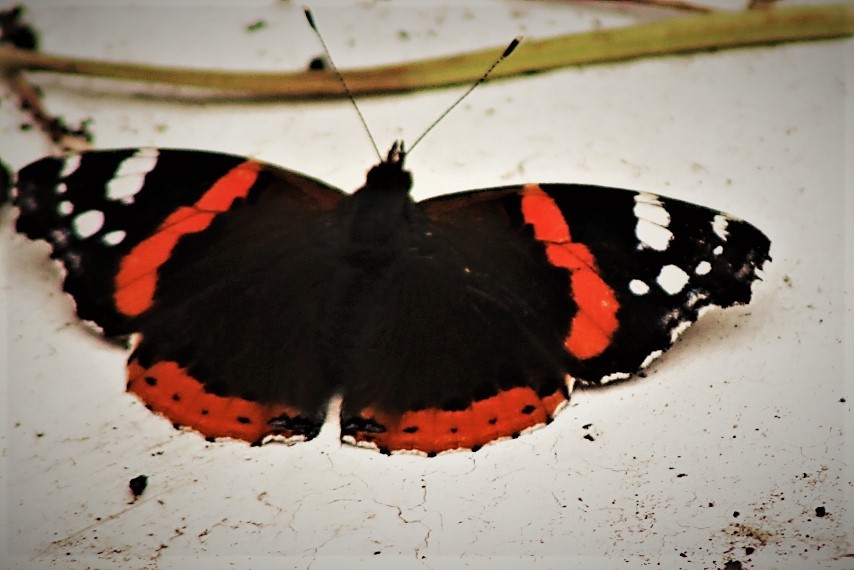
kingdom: Animalia
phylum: Arthropoda
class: Insecta
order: Lepidoptera
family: Nymphalidae
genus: Vanessa
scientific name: Vanessa atalanta
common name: Red admiral
